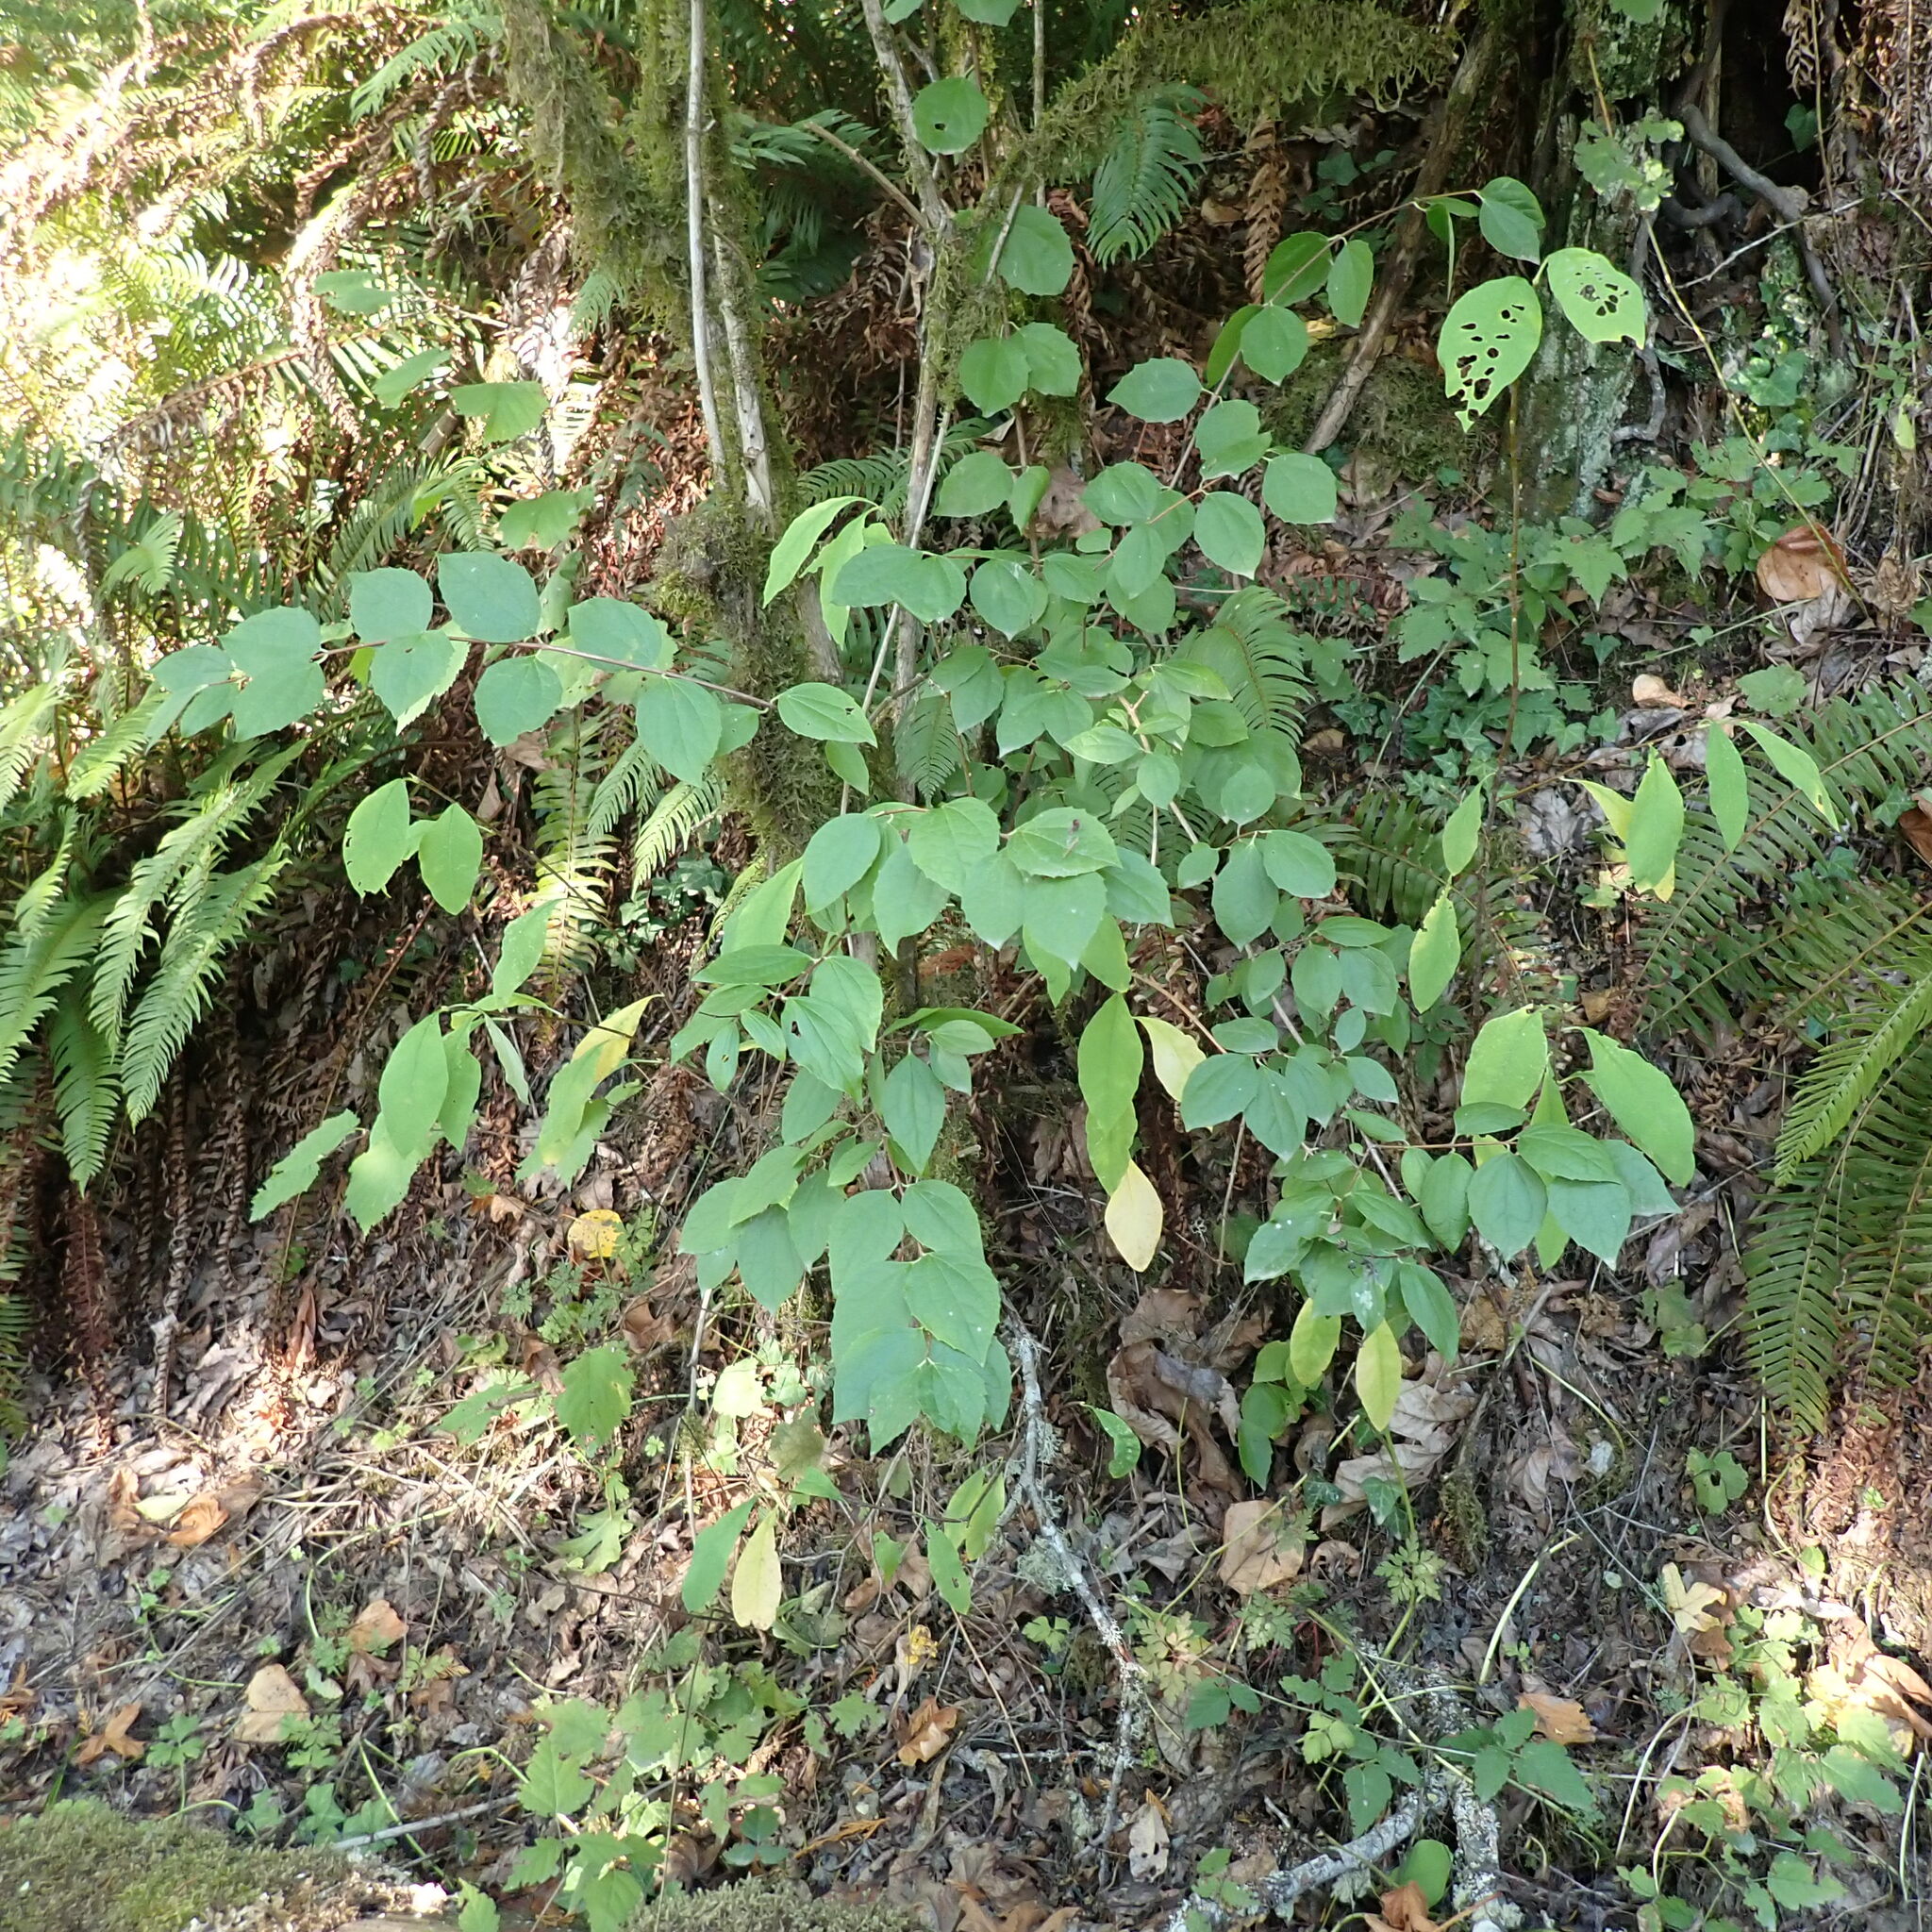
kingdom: Plantae
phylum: Tracheophyta
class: Magnoliopsida
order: Cornales
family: Hydrangeaceae
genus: Philadelphus
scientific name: Philadelphus lewisii
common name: Lewis's mock orange
